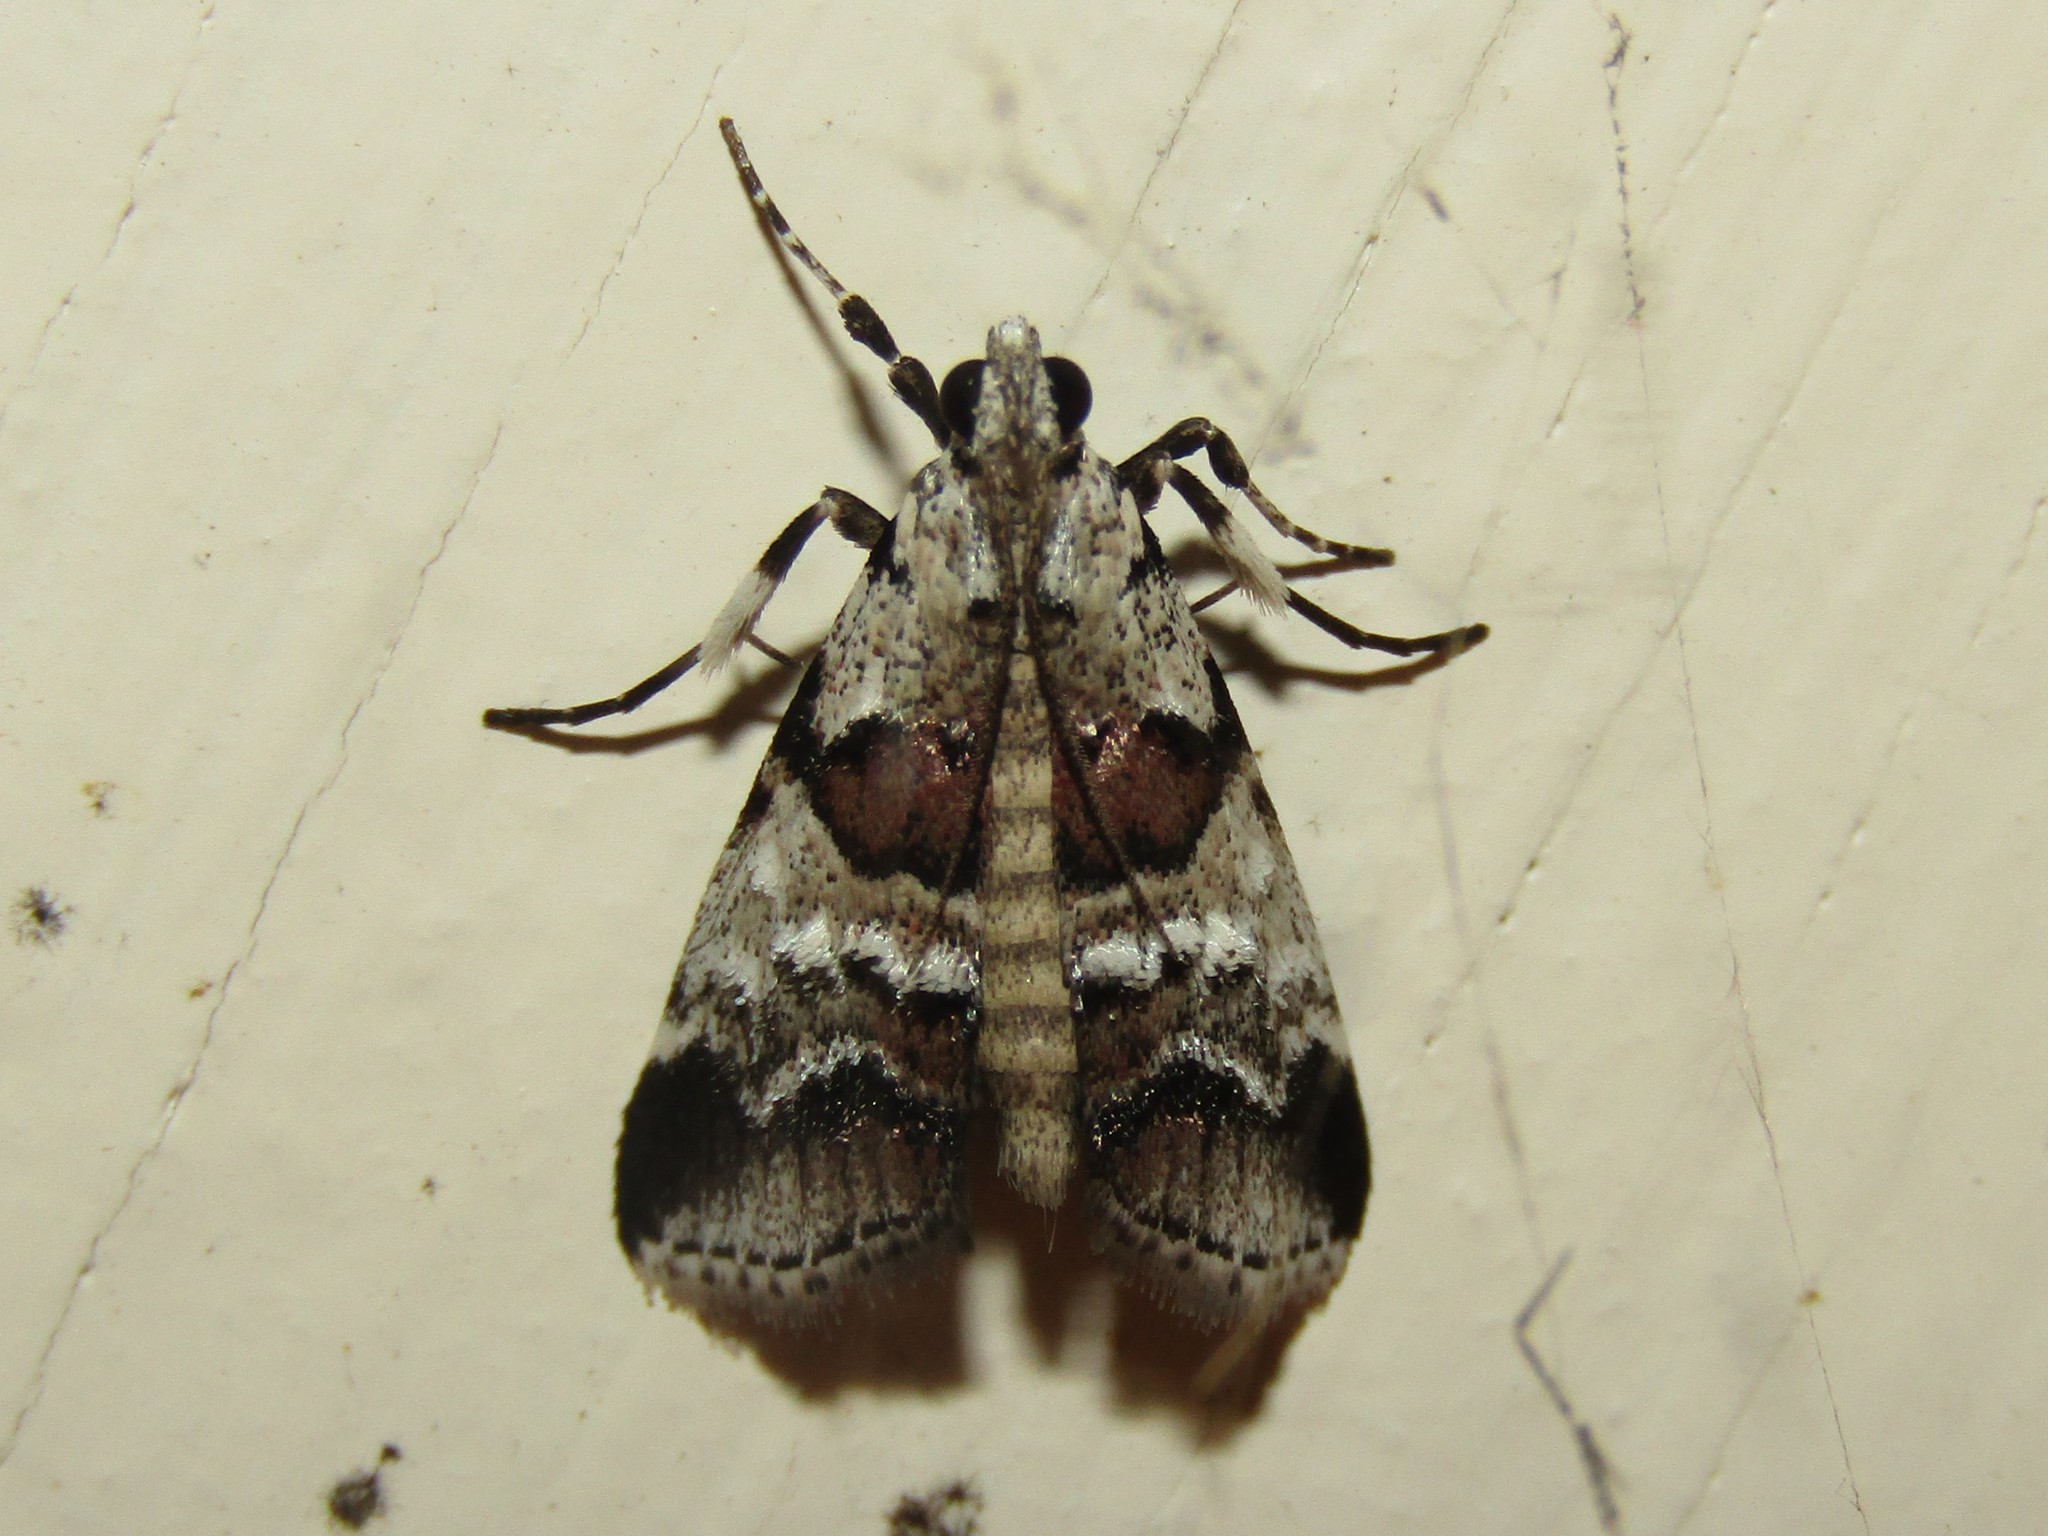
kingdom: Animalia
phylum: Arthropoda
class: Insecta
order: Lepidoptera
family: Pyralidae
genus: Tallula
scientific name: Tallula atrifascialis
